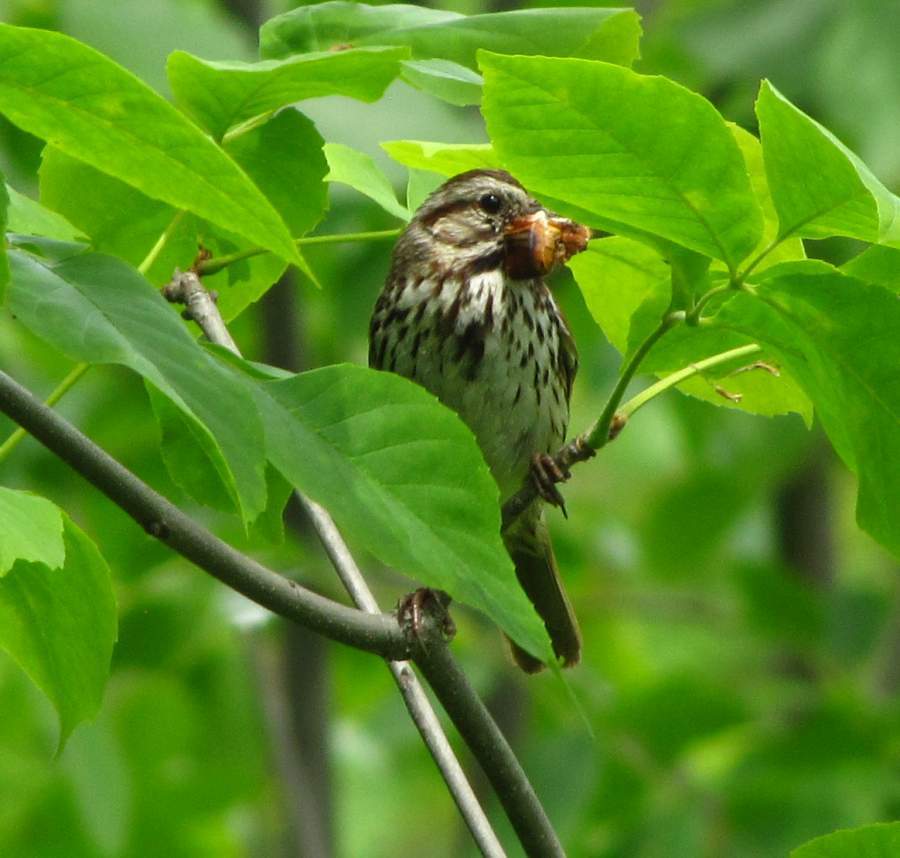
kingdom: Animalia
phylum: Chordata
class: Aves
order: Passeriformes
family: Passerellidae
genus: Melospiza
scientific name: Melospiza melodia
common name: Song sparrow
